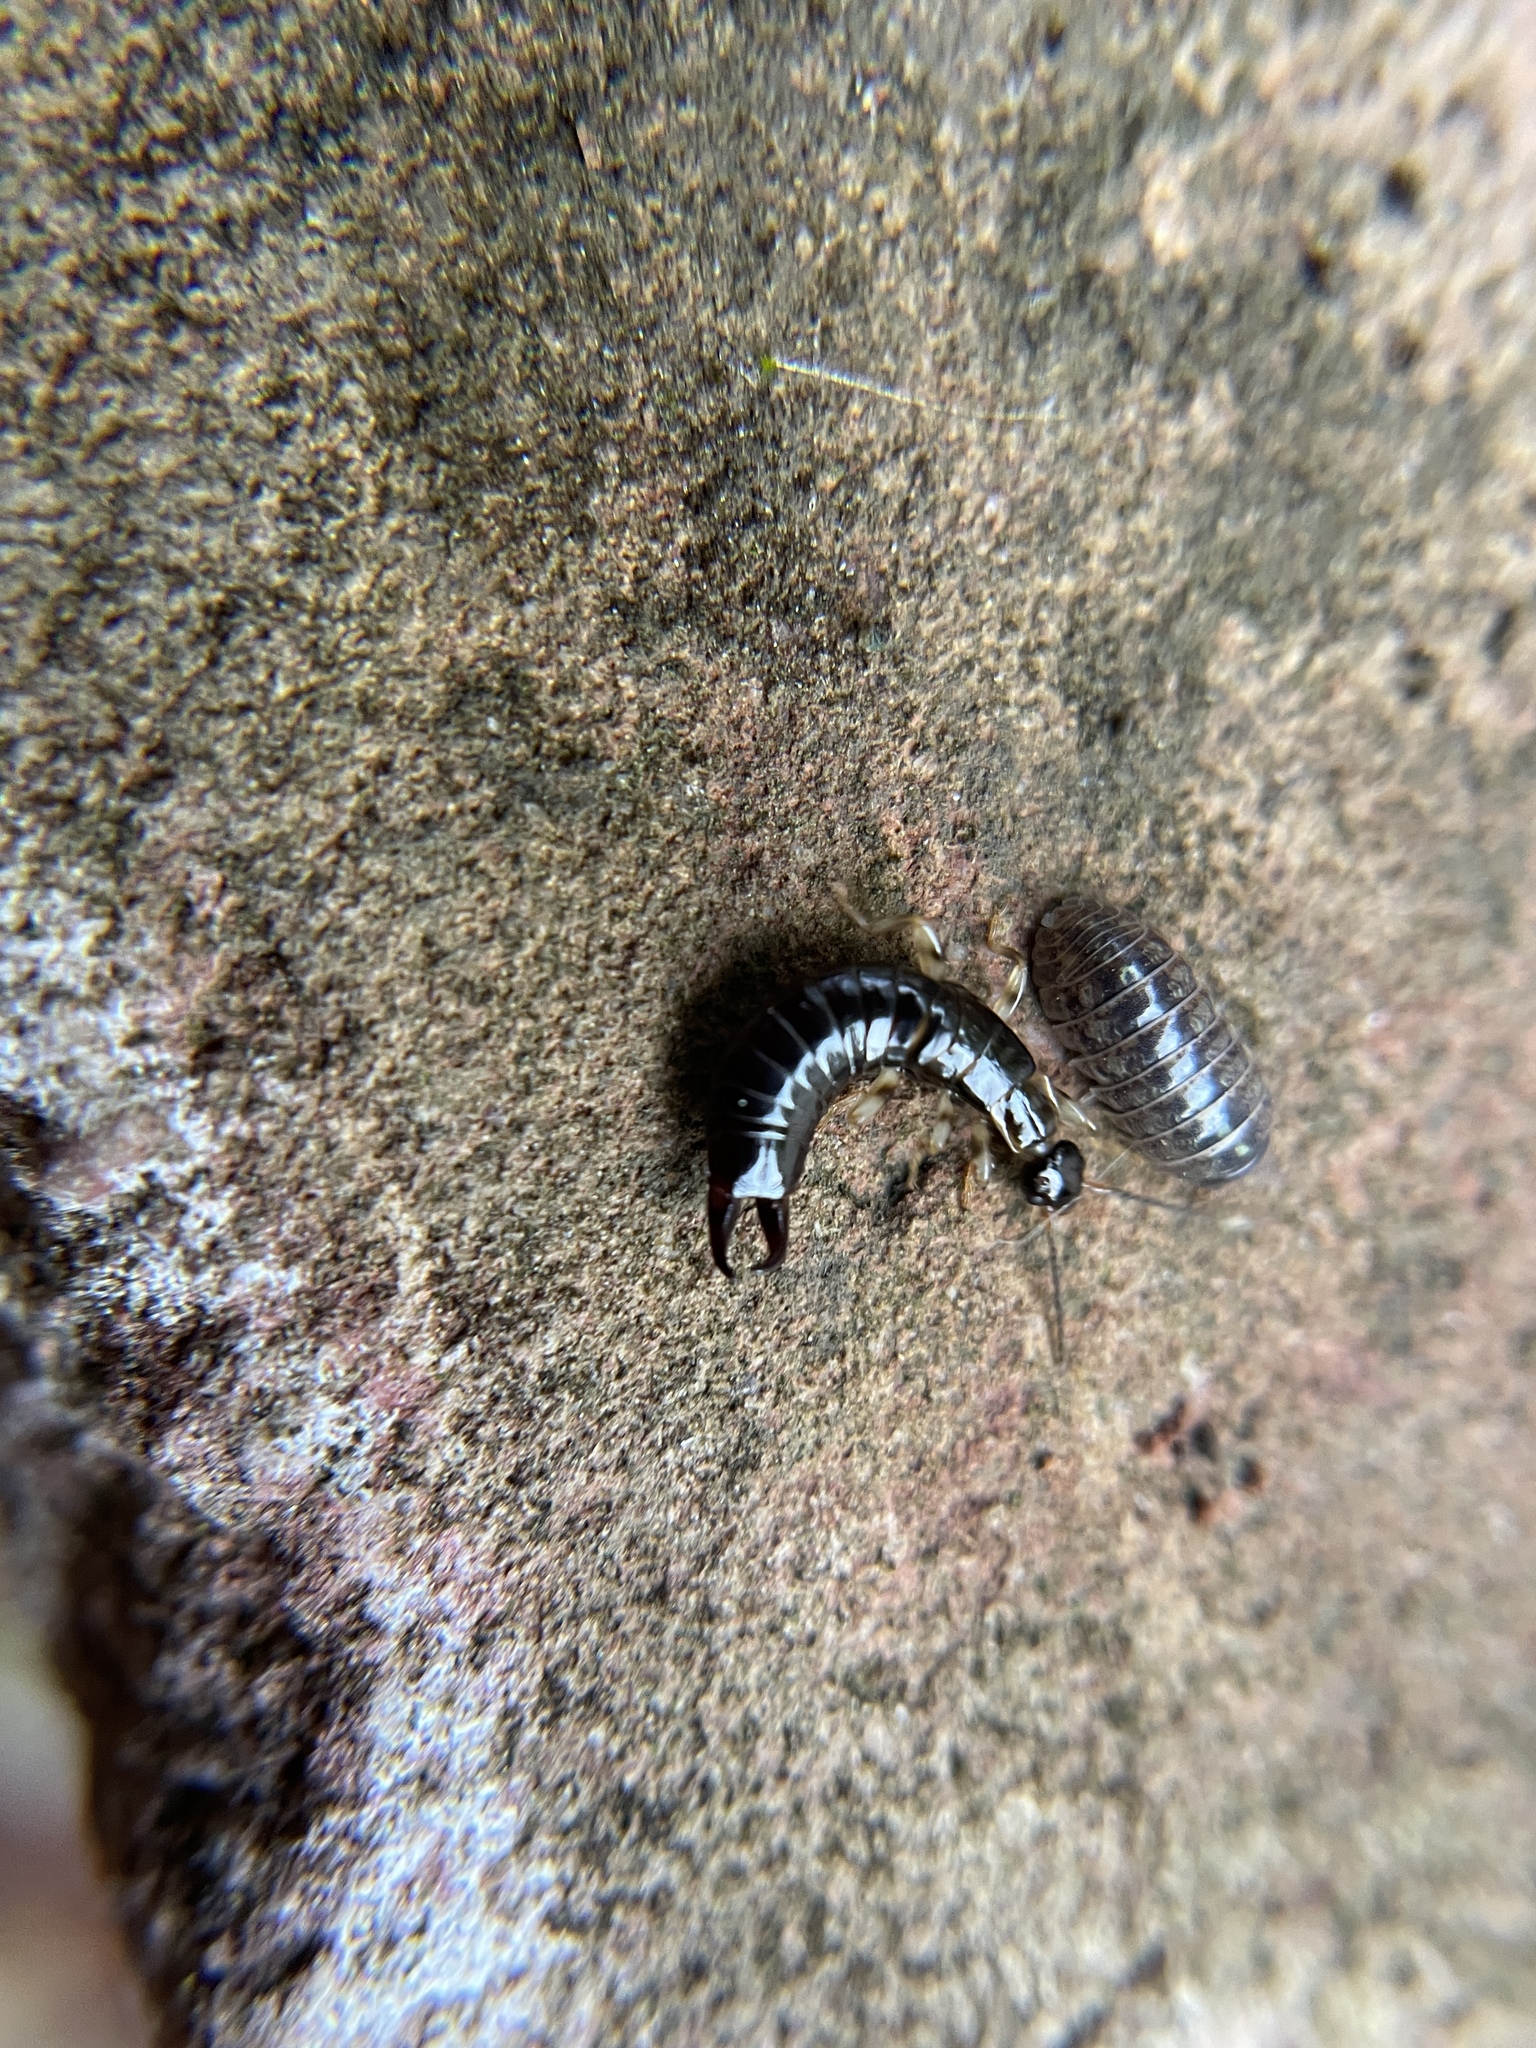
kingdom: Animalia
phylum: Arthropoda
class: Malacostraca
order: Isopoda
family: Armadillidiidae
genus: Armadillidium
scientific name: Armadillidium vulgare
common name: Common pill woodlouse
